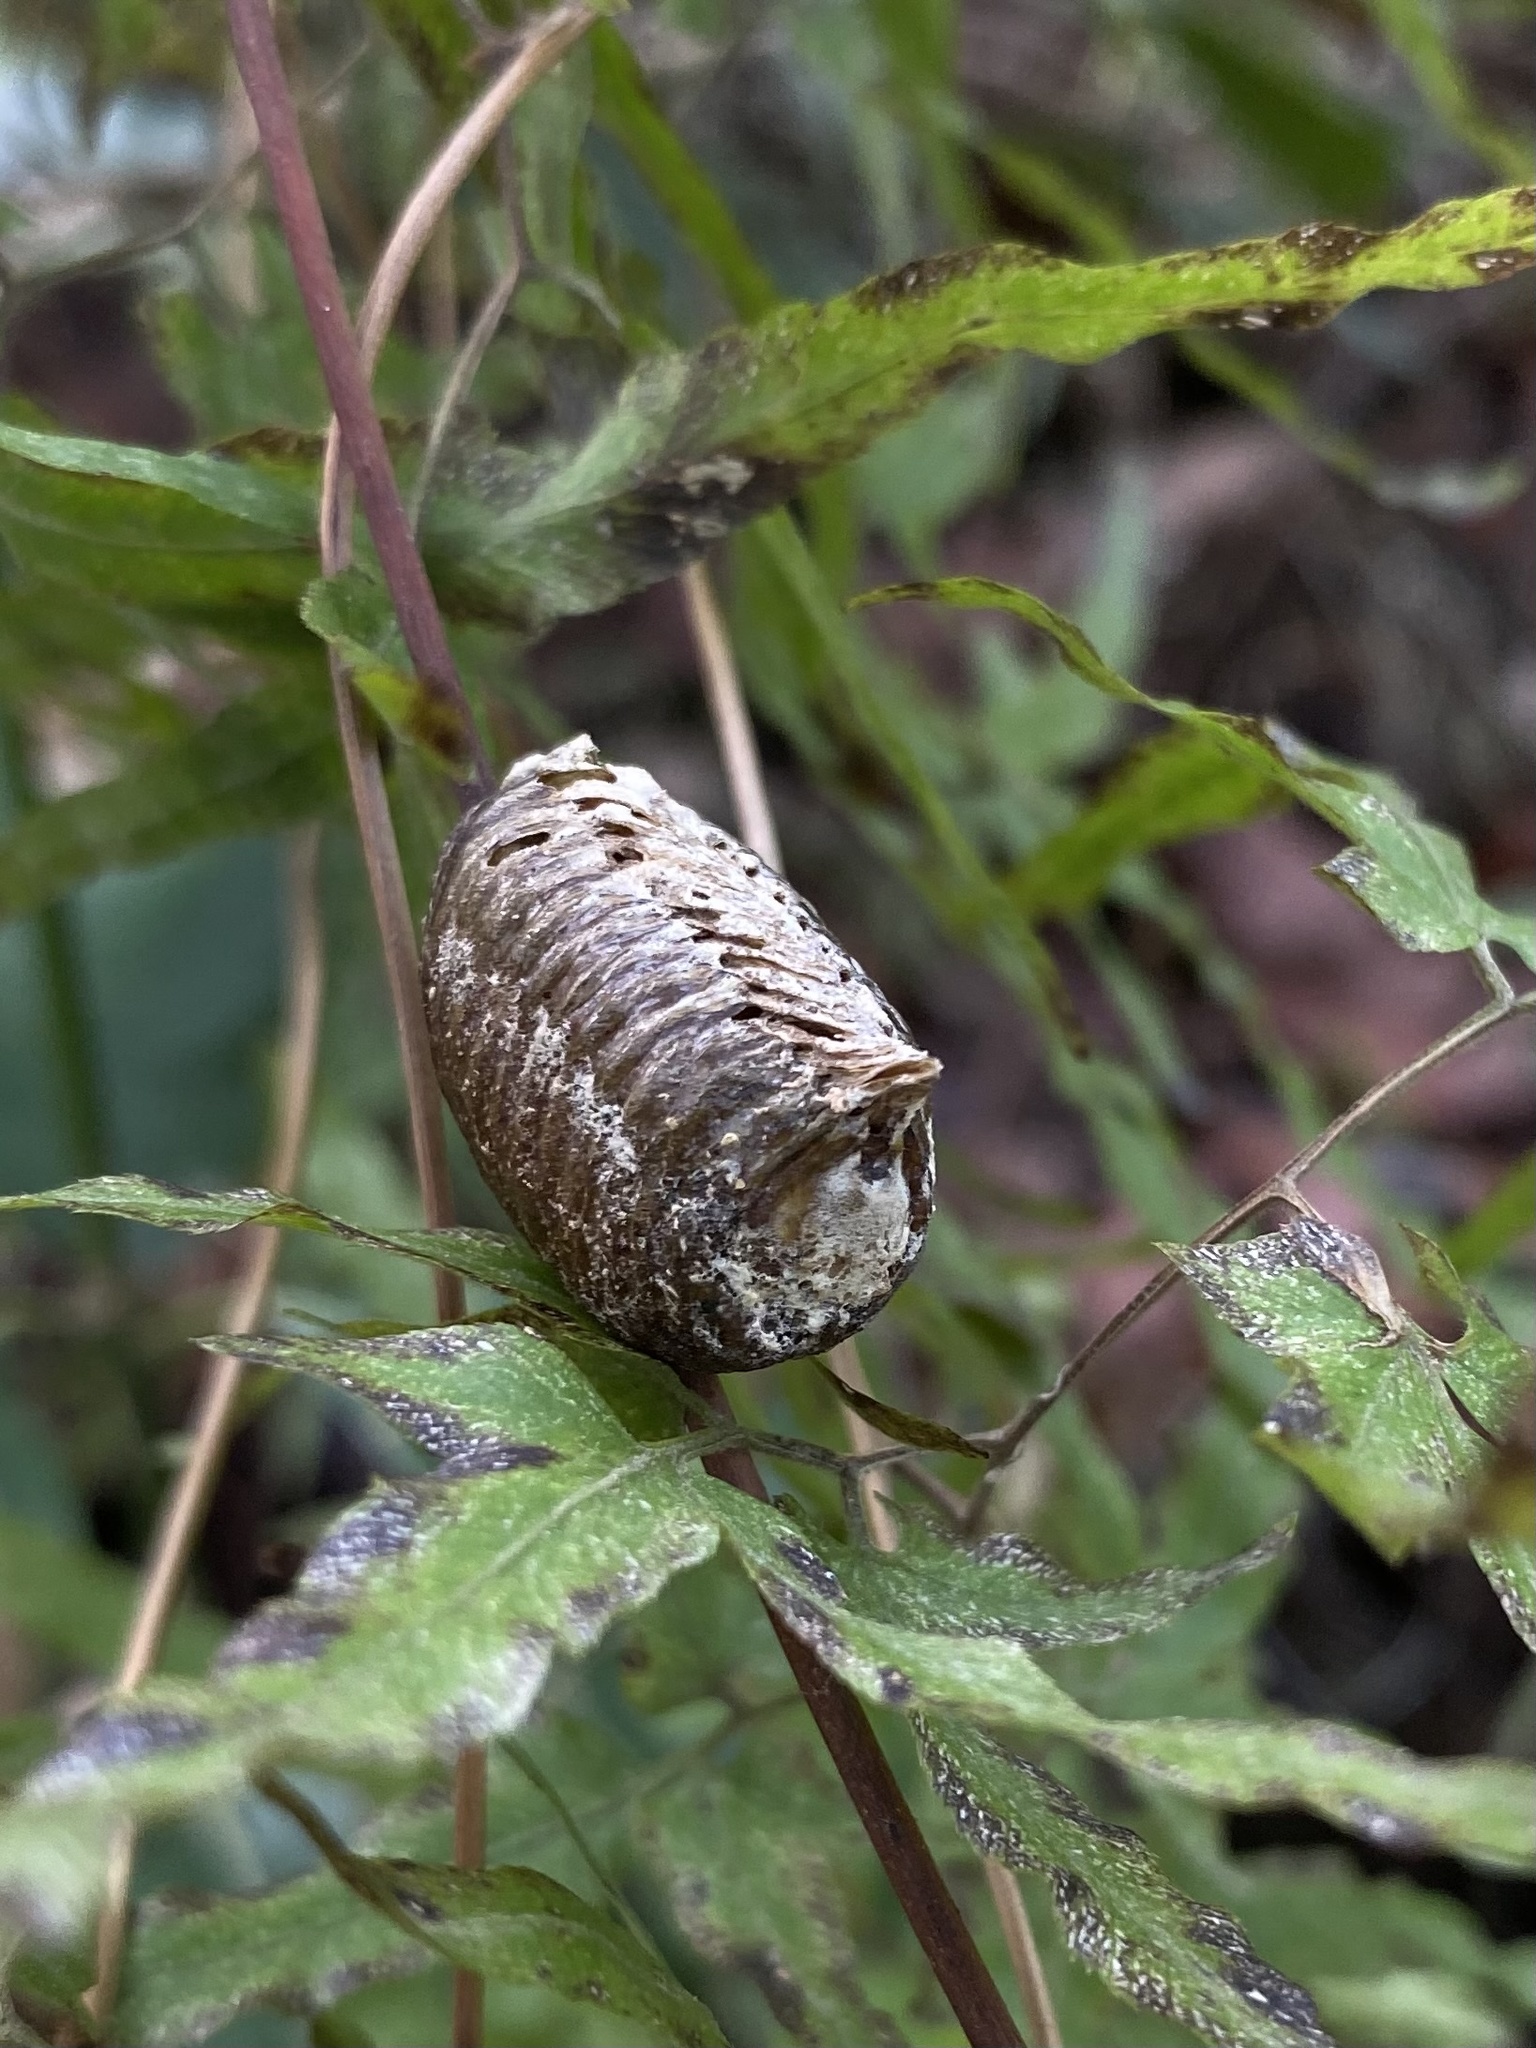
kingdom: Animalia
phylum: Arthropoda
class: Insecta
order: Mantodea
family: Mantidae
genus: Hierodula
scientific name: Hierodula patellifera
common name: Asian mantis
